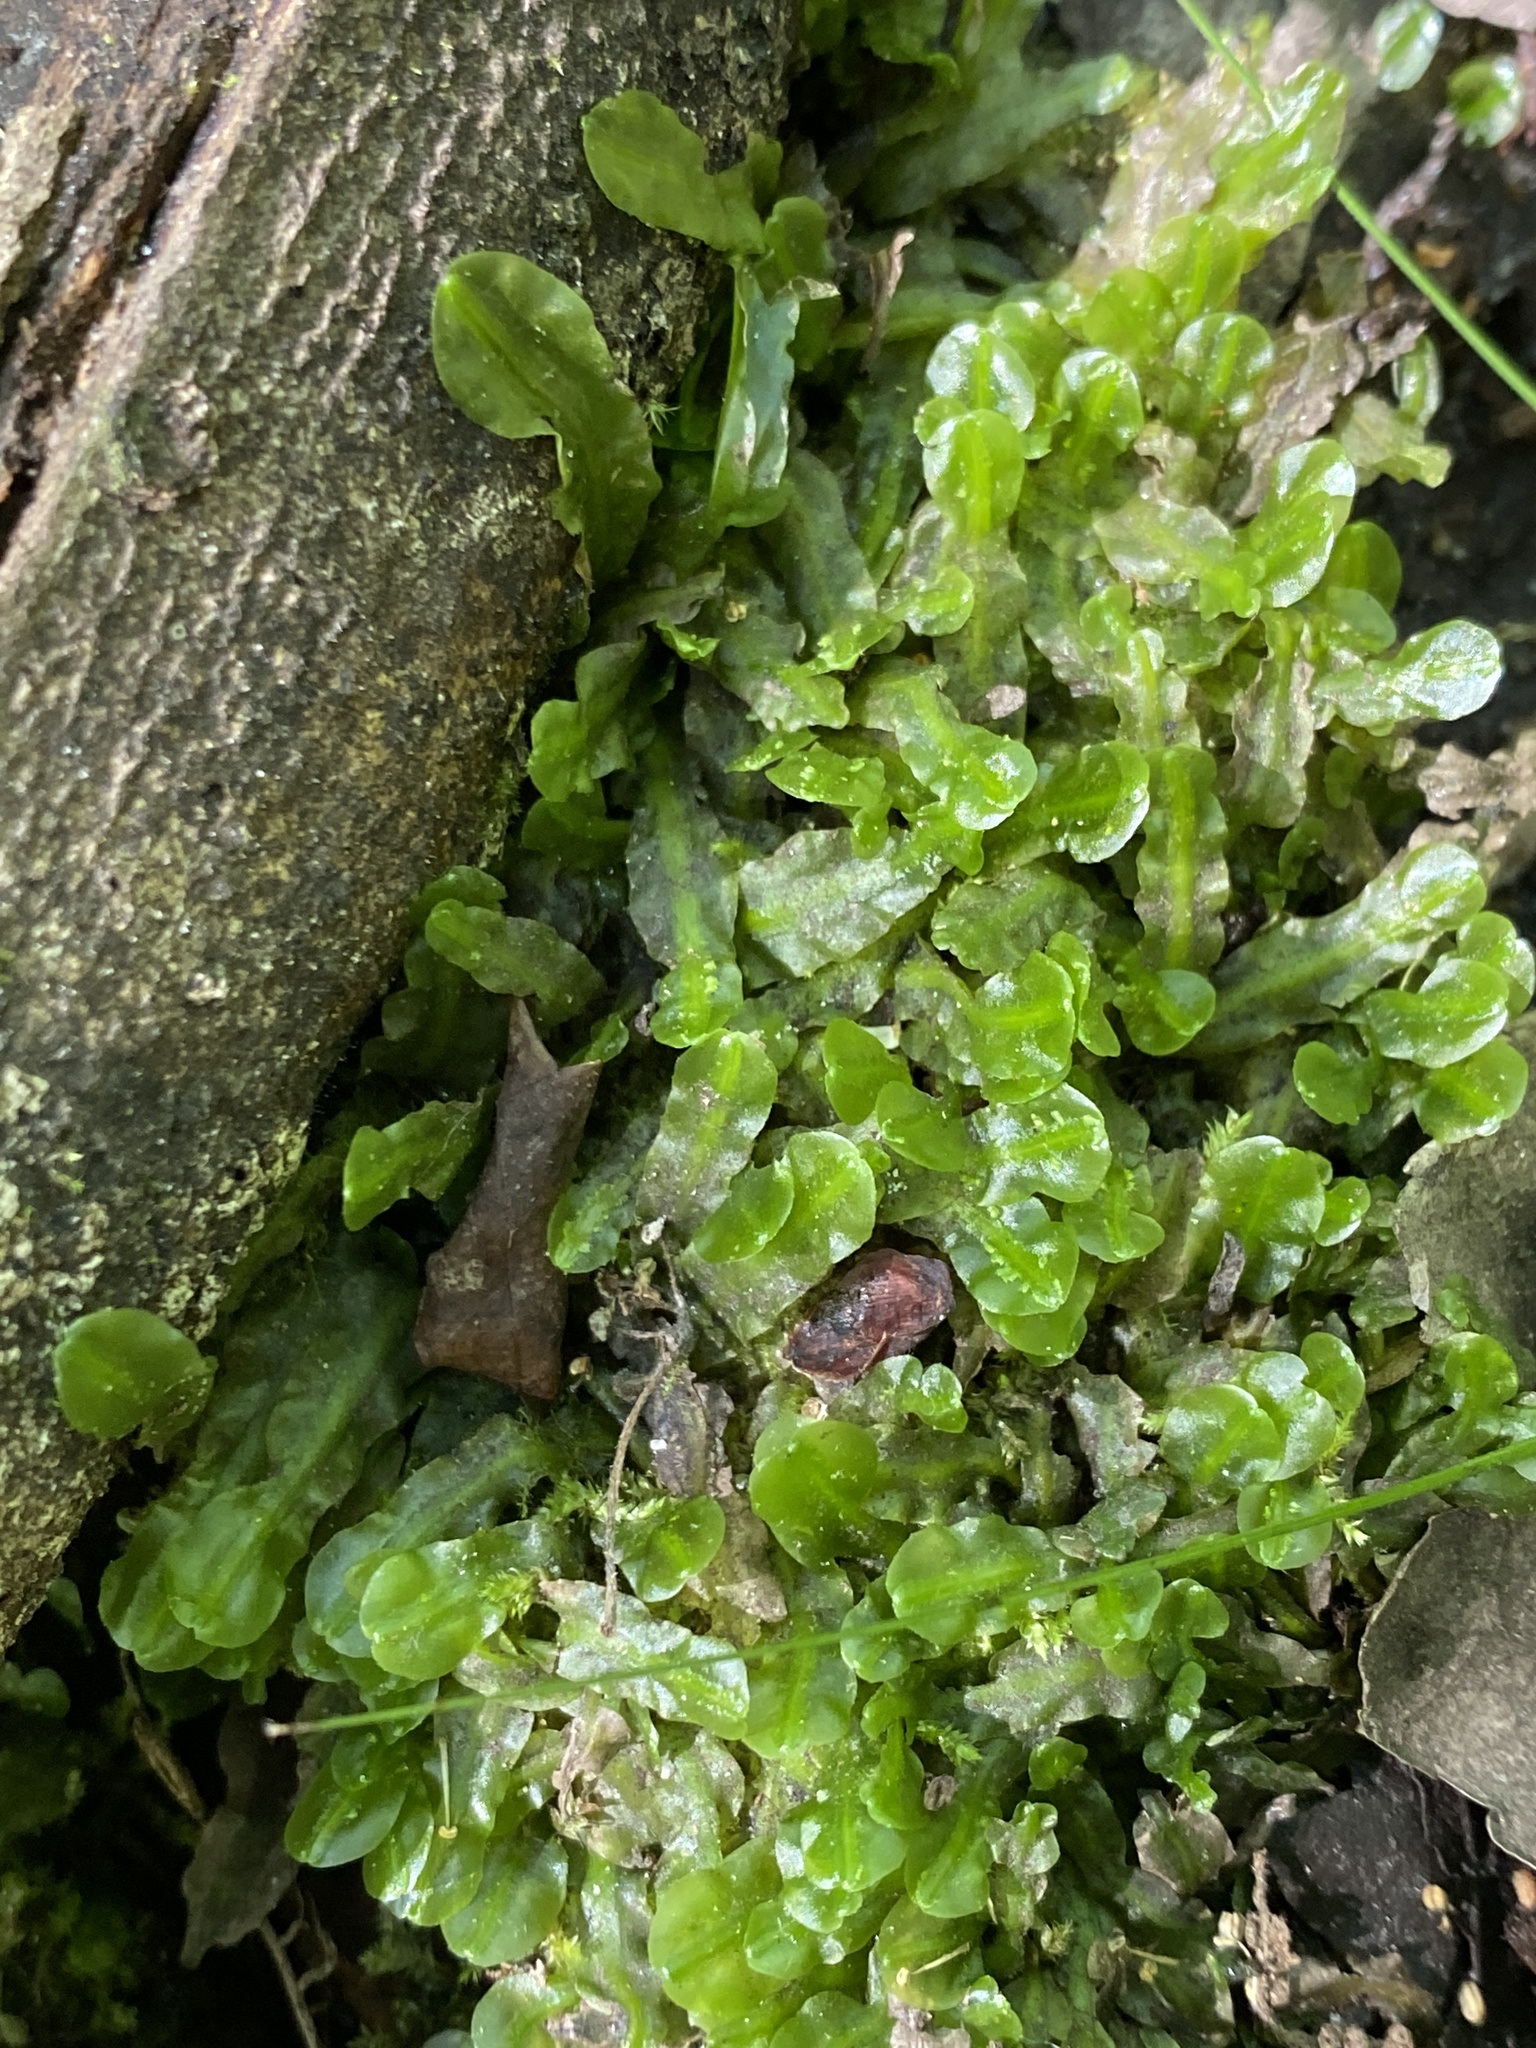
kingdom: Plantae
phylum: Marchantiophyta
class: Jungermanniopsida
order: Pallaviciniales
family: Pallaviciniaceae
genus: Pallavicinia
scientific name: Pallavicinia lyellii
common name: Veilwort
